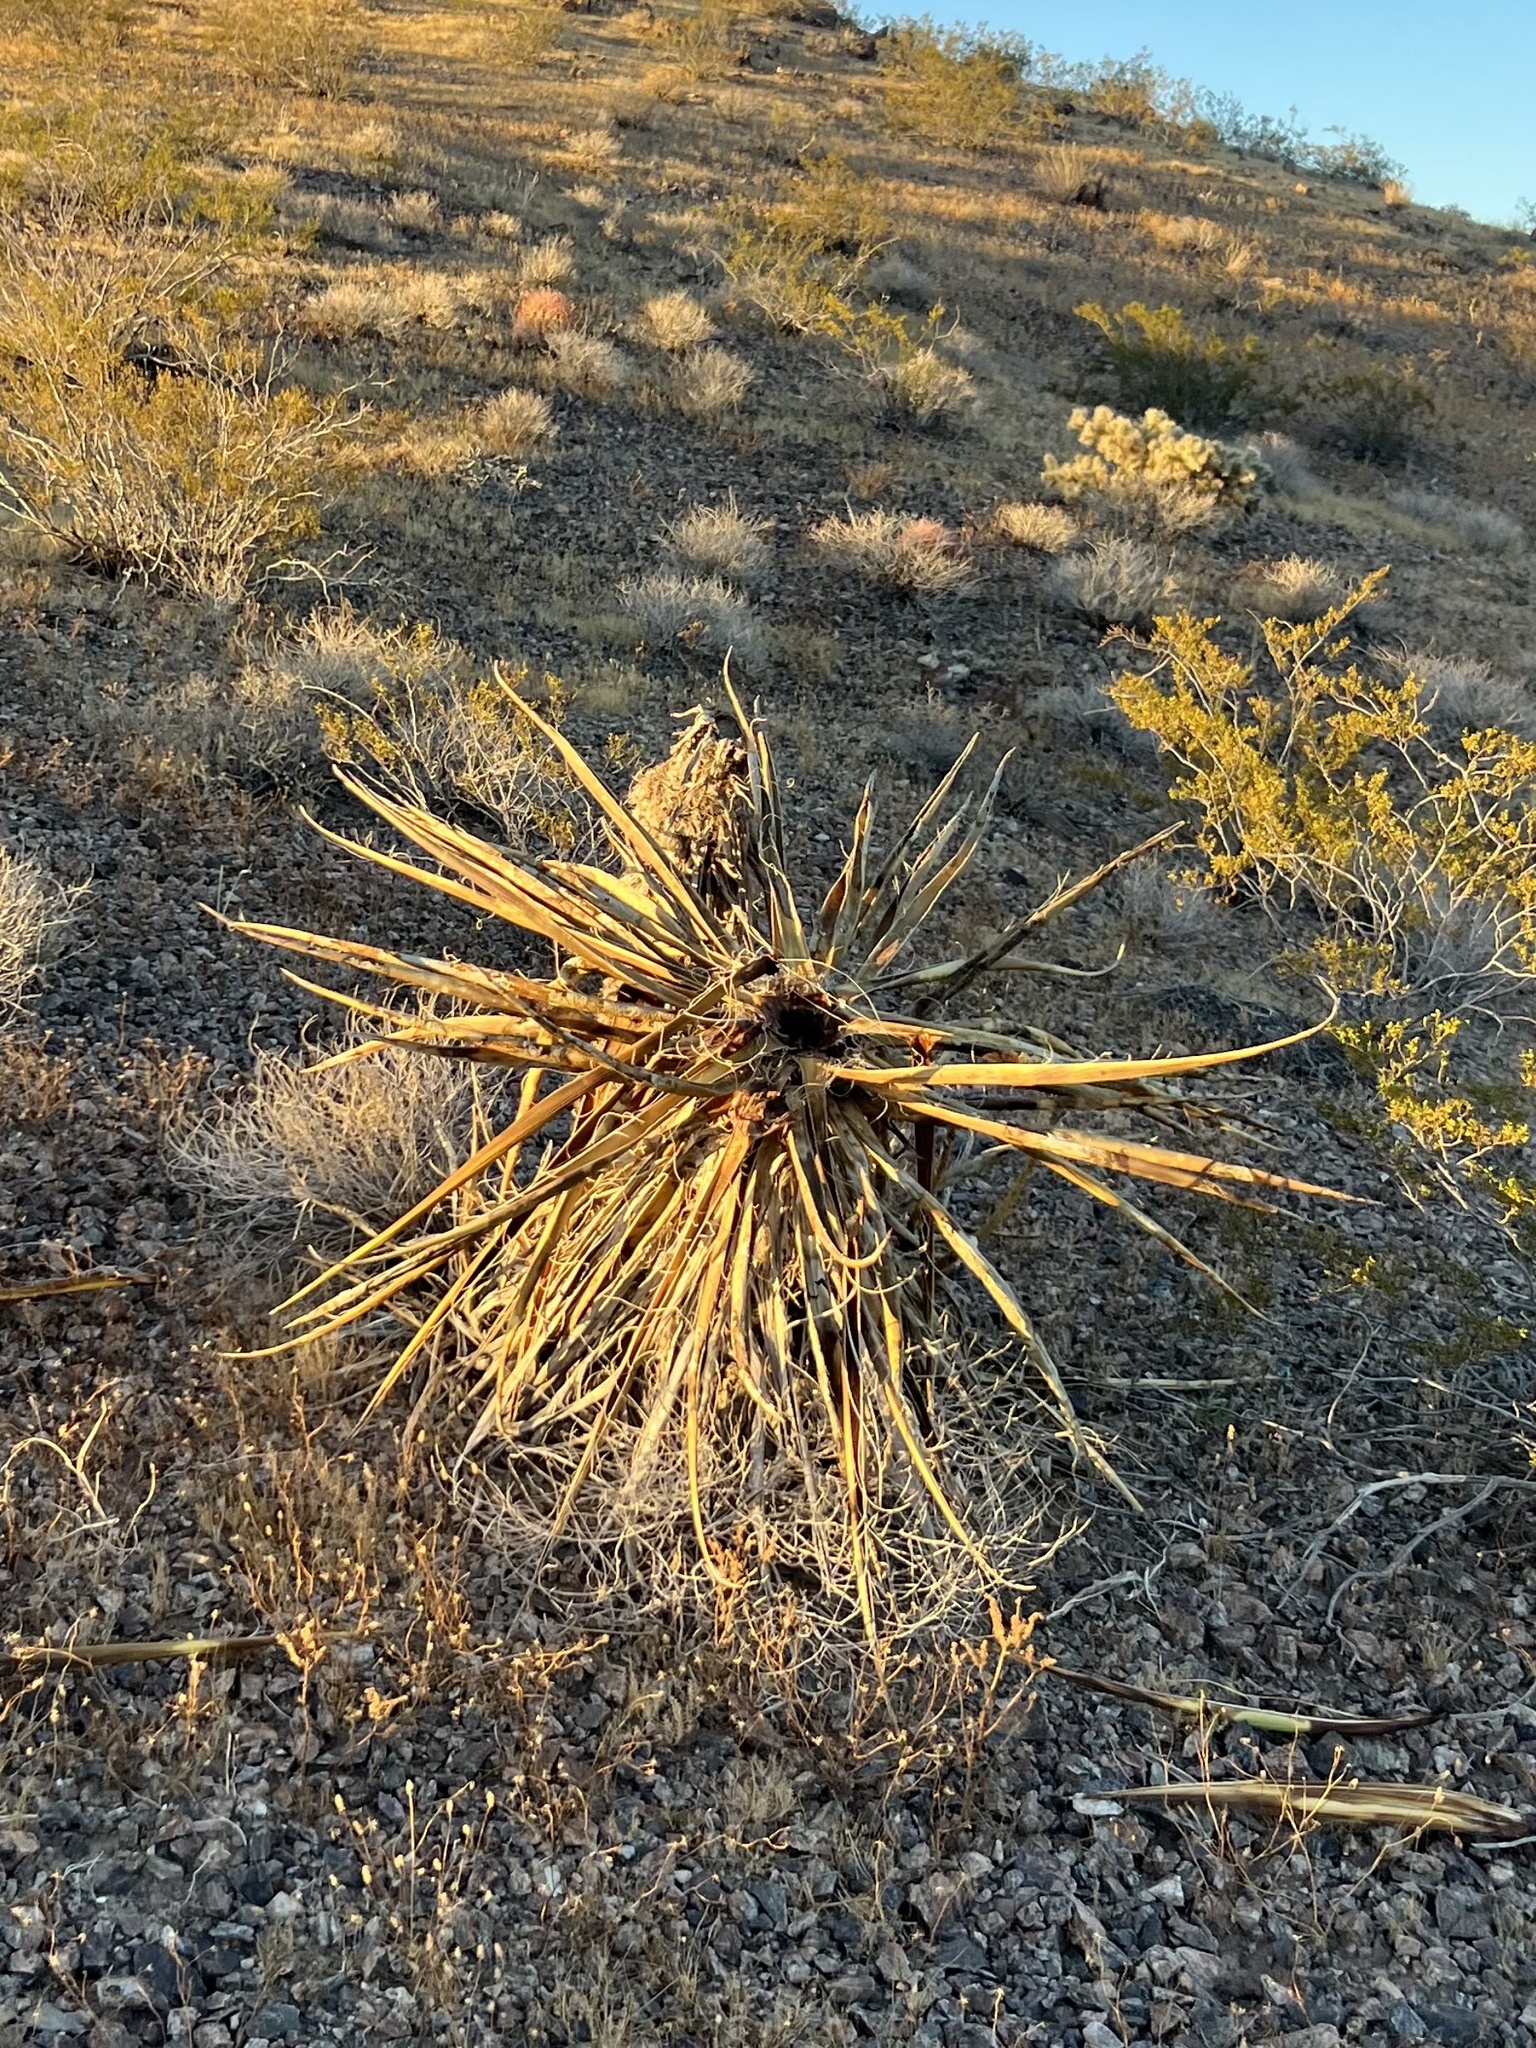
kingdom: Plantae
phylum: Tracheophyta
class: Liliopsida
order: Asparagales
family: Asparagaceae
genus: Yucca
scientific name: Yucca schidigera
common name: Mojave yucca
